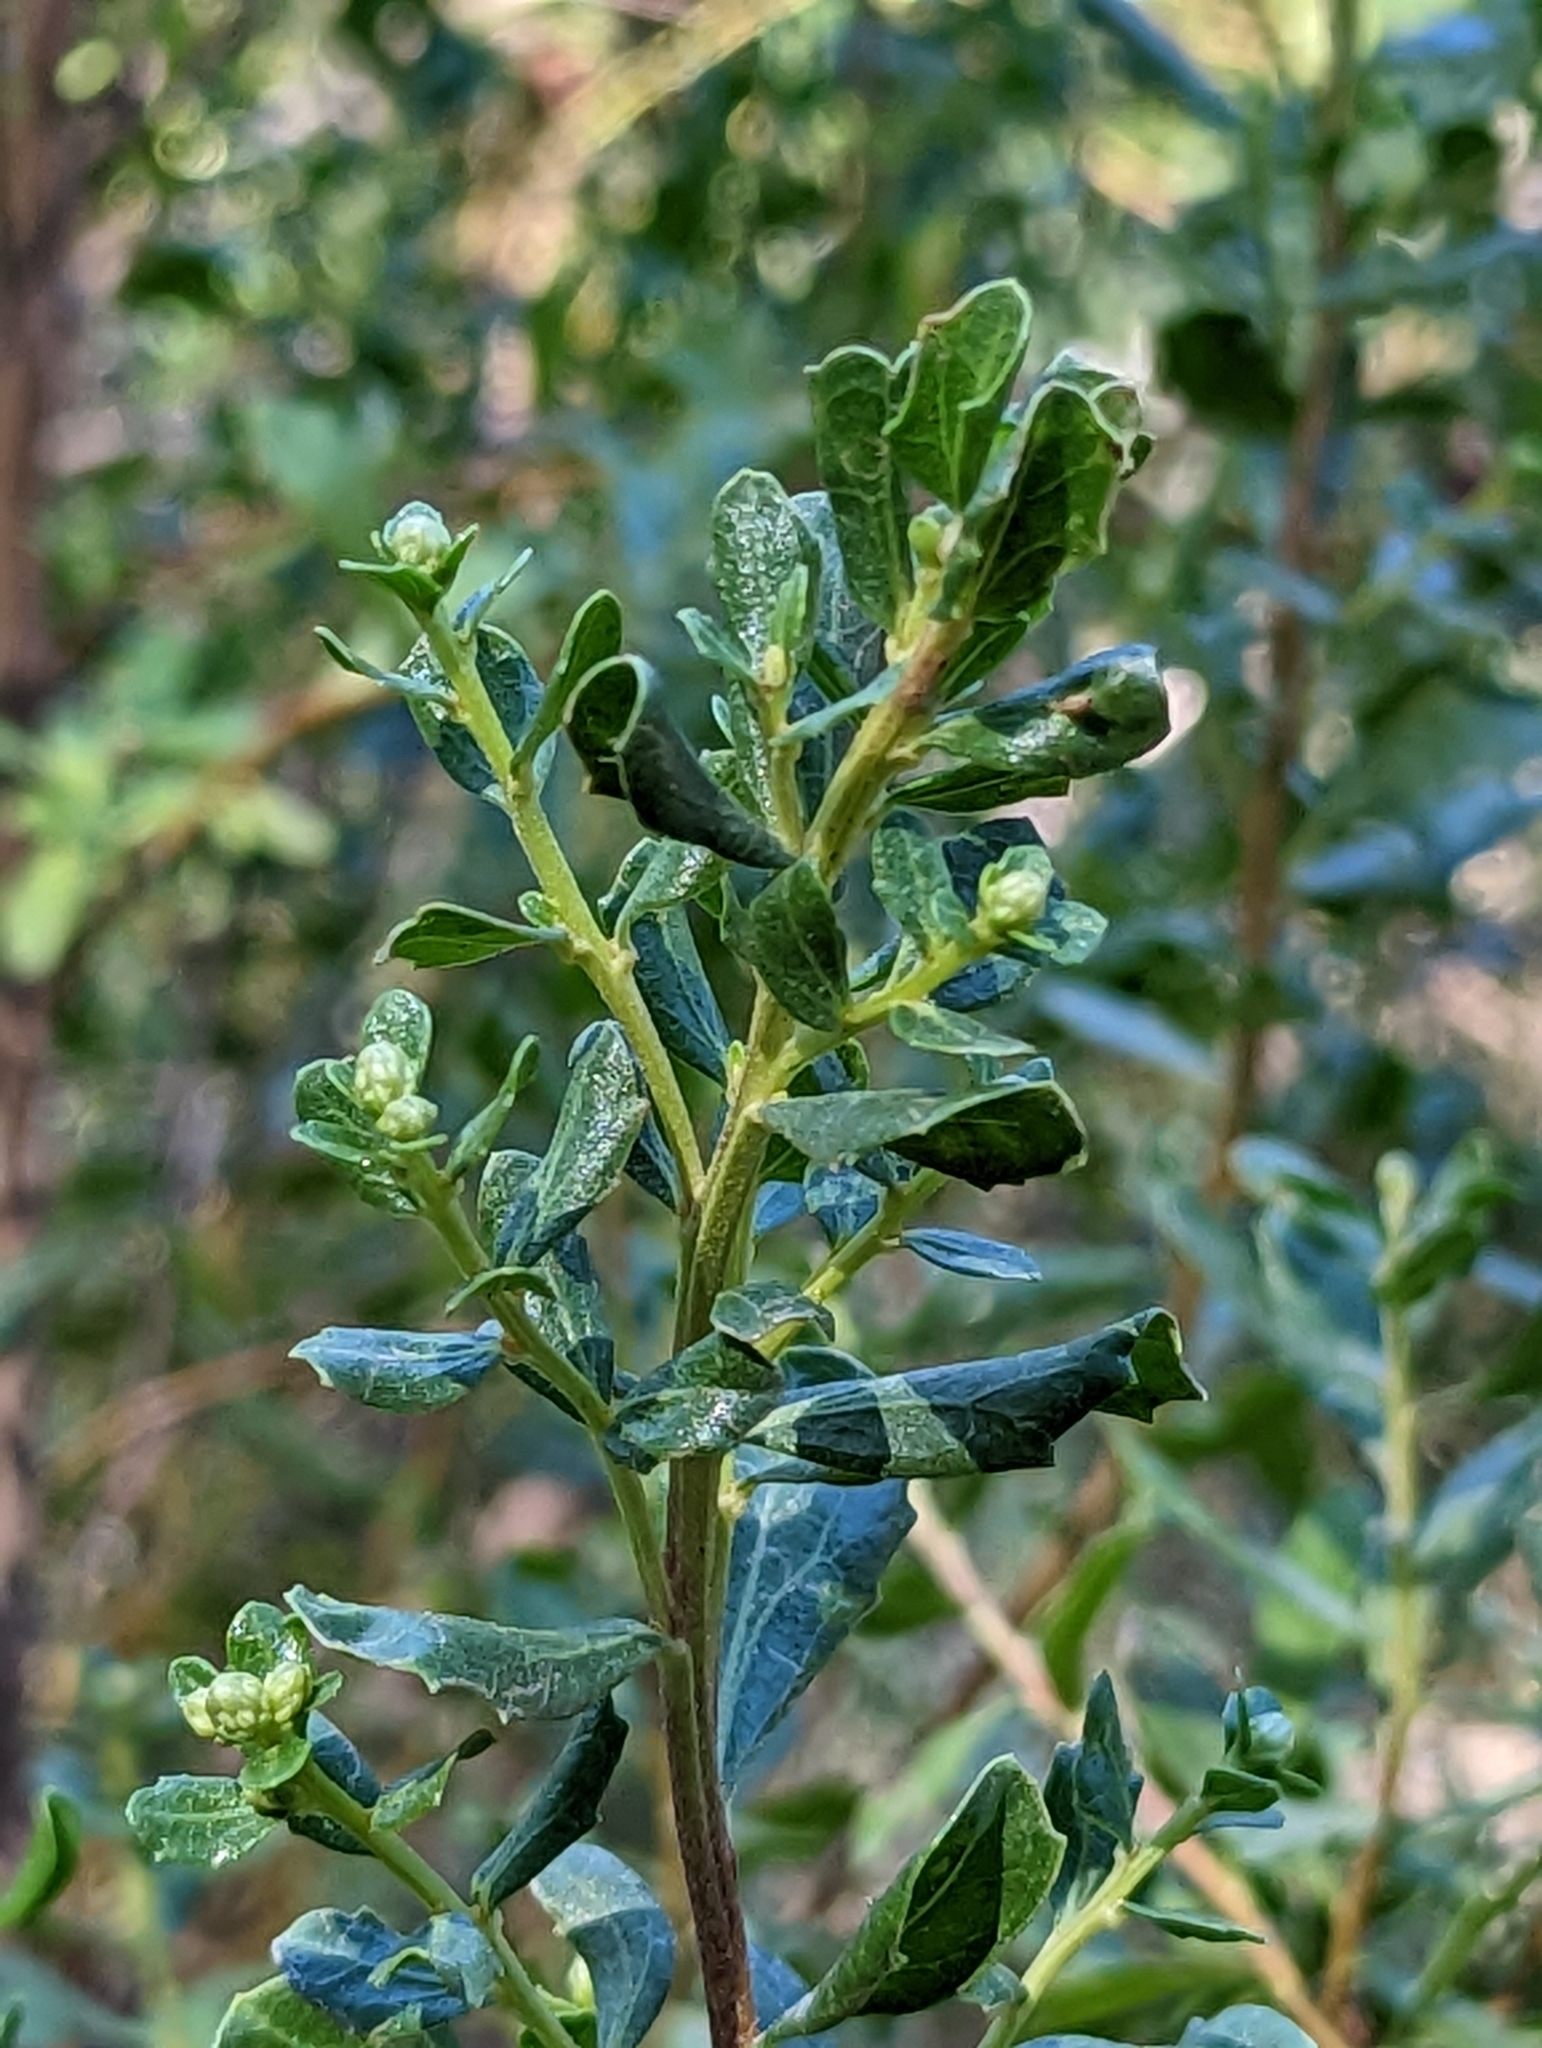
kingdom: Plantae
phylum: Tracheophyta
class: Magnoliopsida
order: Asterales
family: Asteraceae
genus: Baccharis
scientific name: Baccharis pilularis
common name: Coyotebrush
